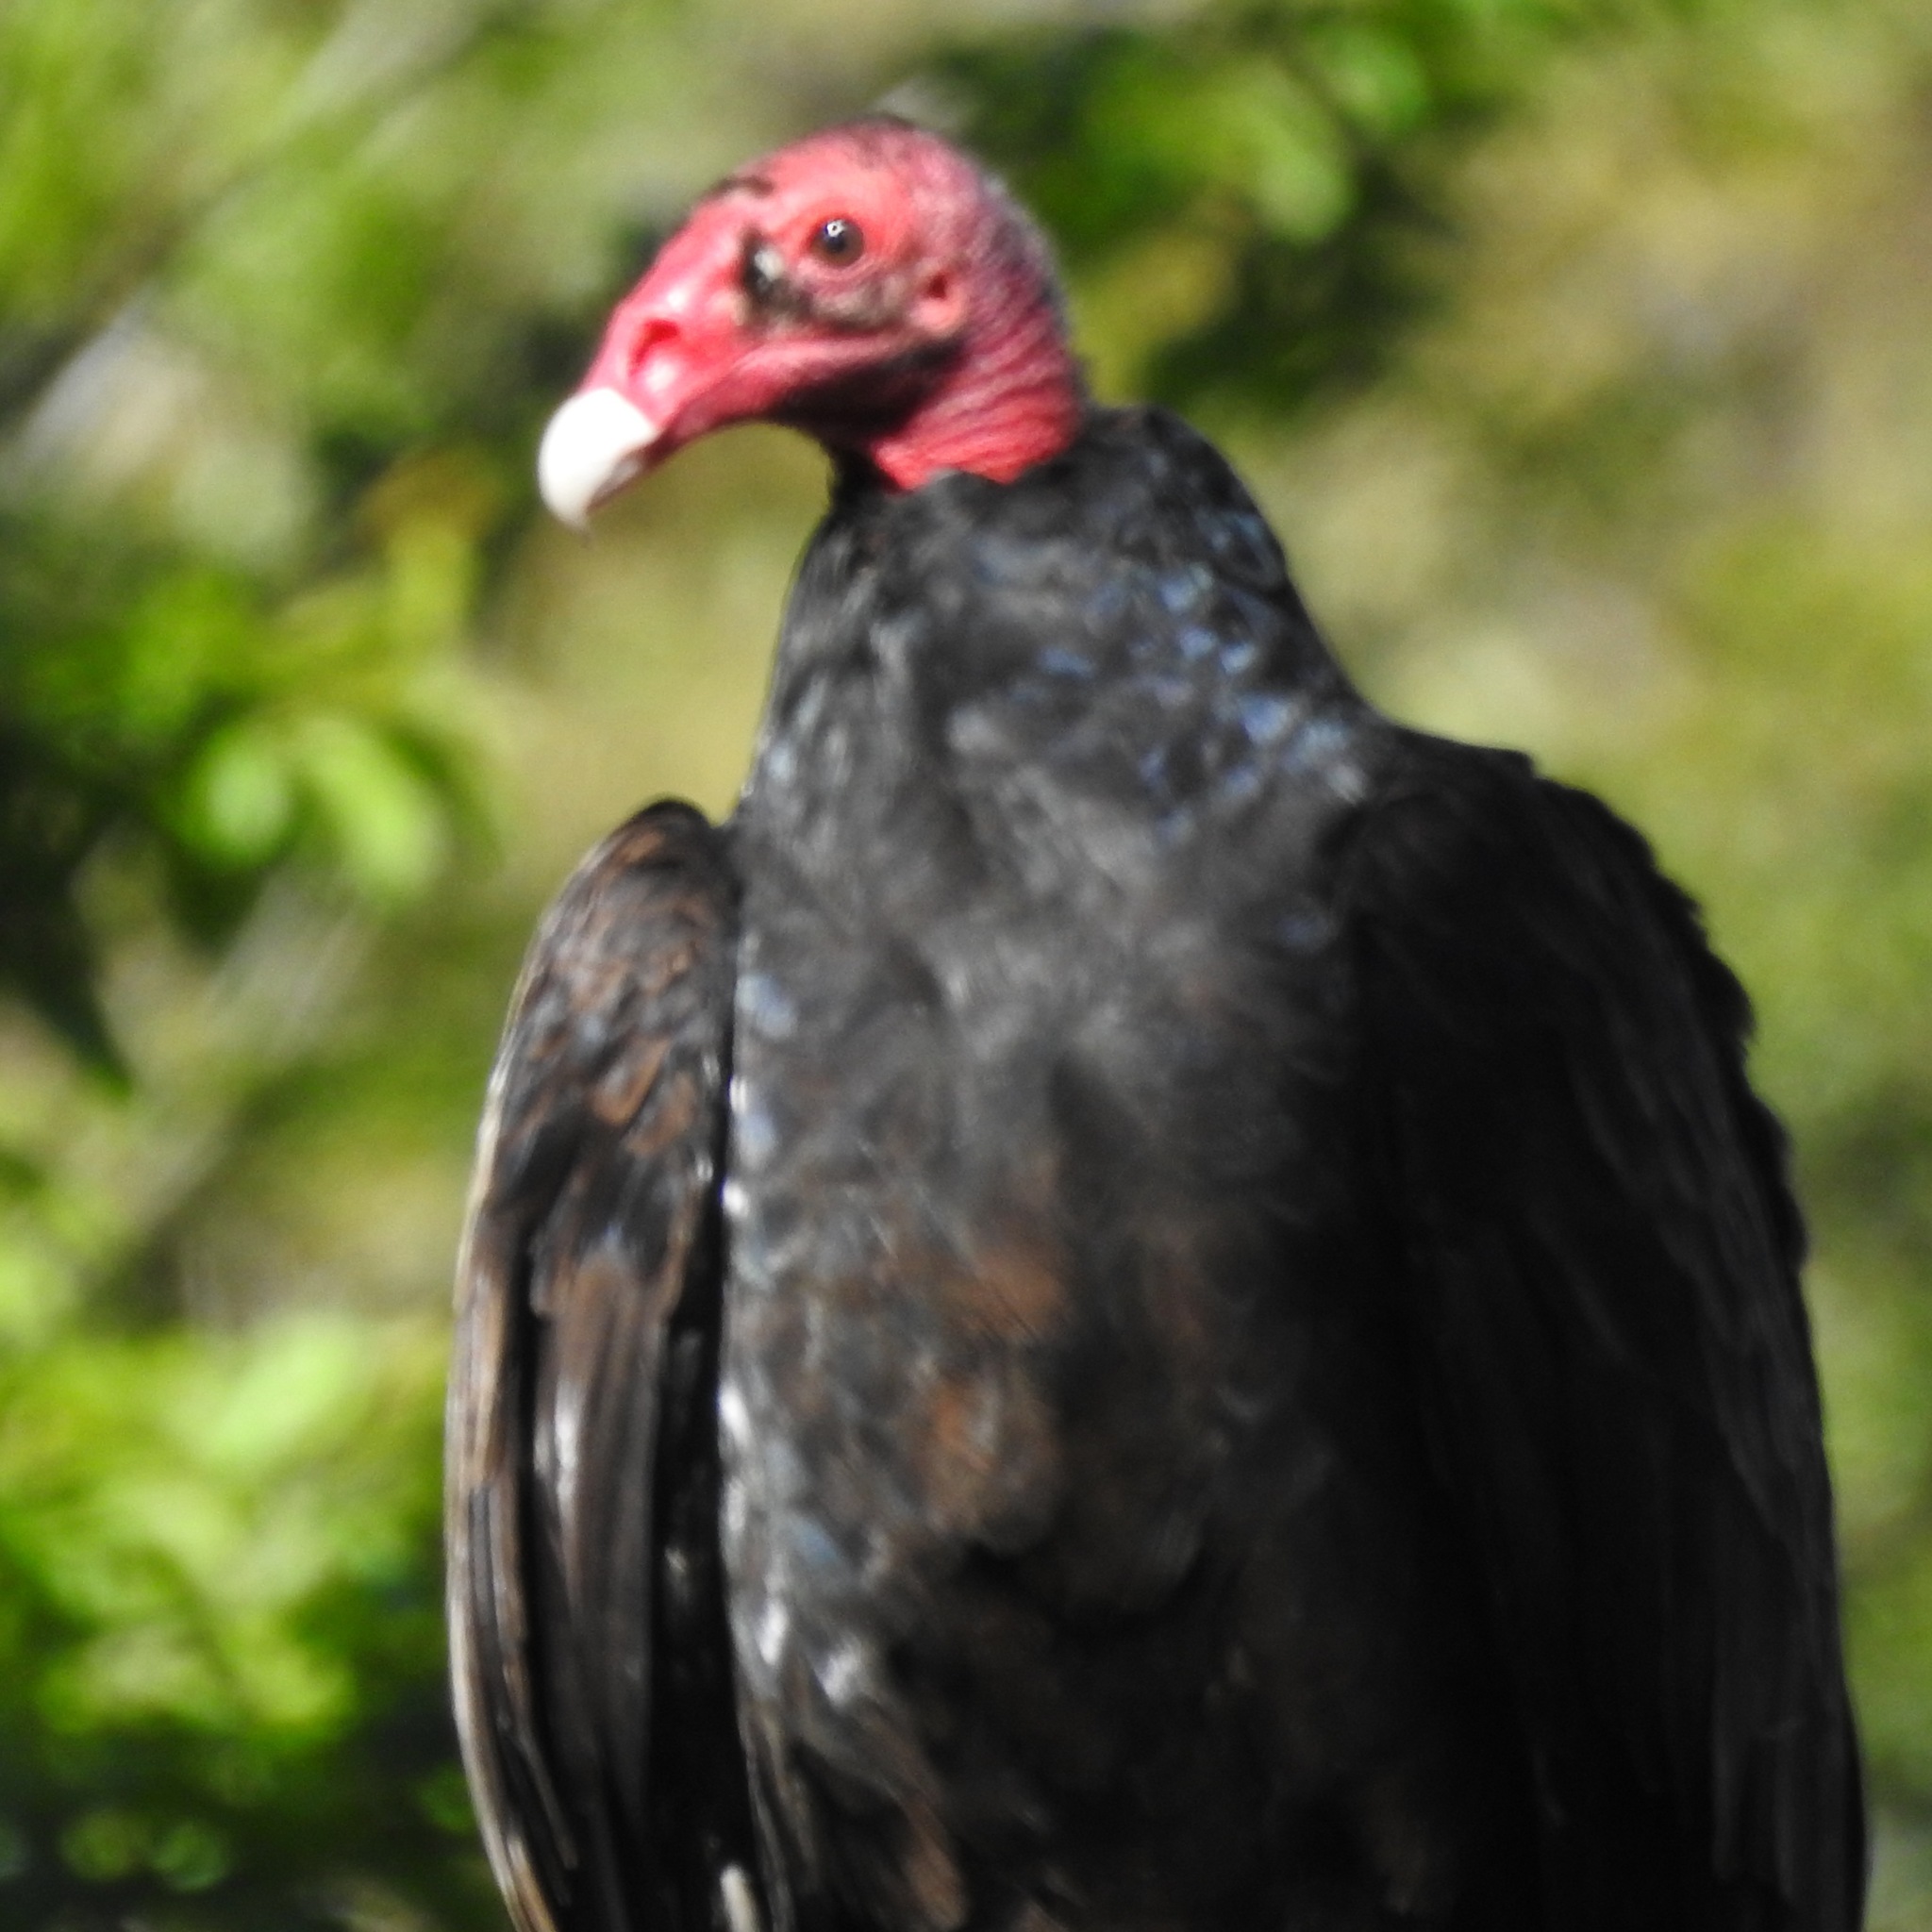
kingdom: Animalia
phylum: Chordata
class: Aves
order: Accipitriformes
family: Cathartidae
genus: Cathartes
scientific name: Cathartes aura
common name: Turkey vulture
